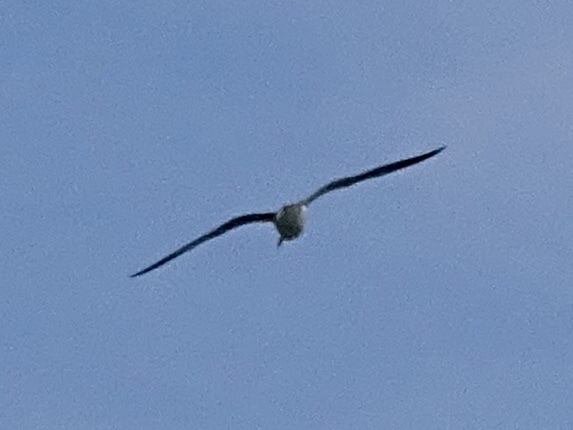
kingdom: Animalia
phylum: Chordata
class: Aves
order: Charadriiformes
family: Laridae
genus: Larus
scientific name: Larus delawarensis
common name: Ring-billed gull
